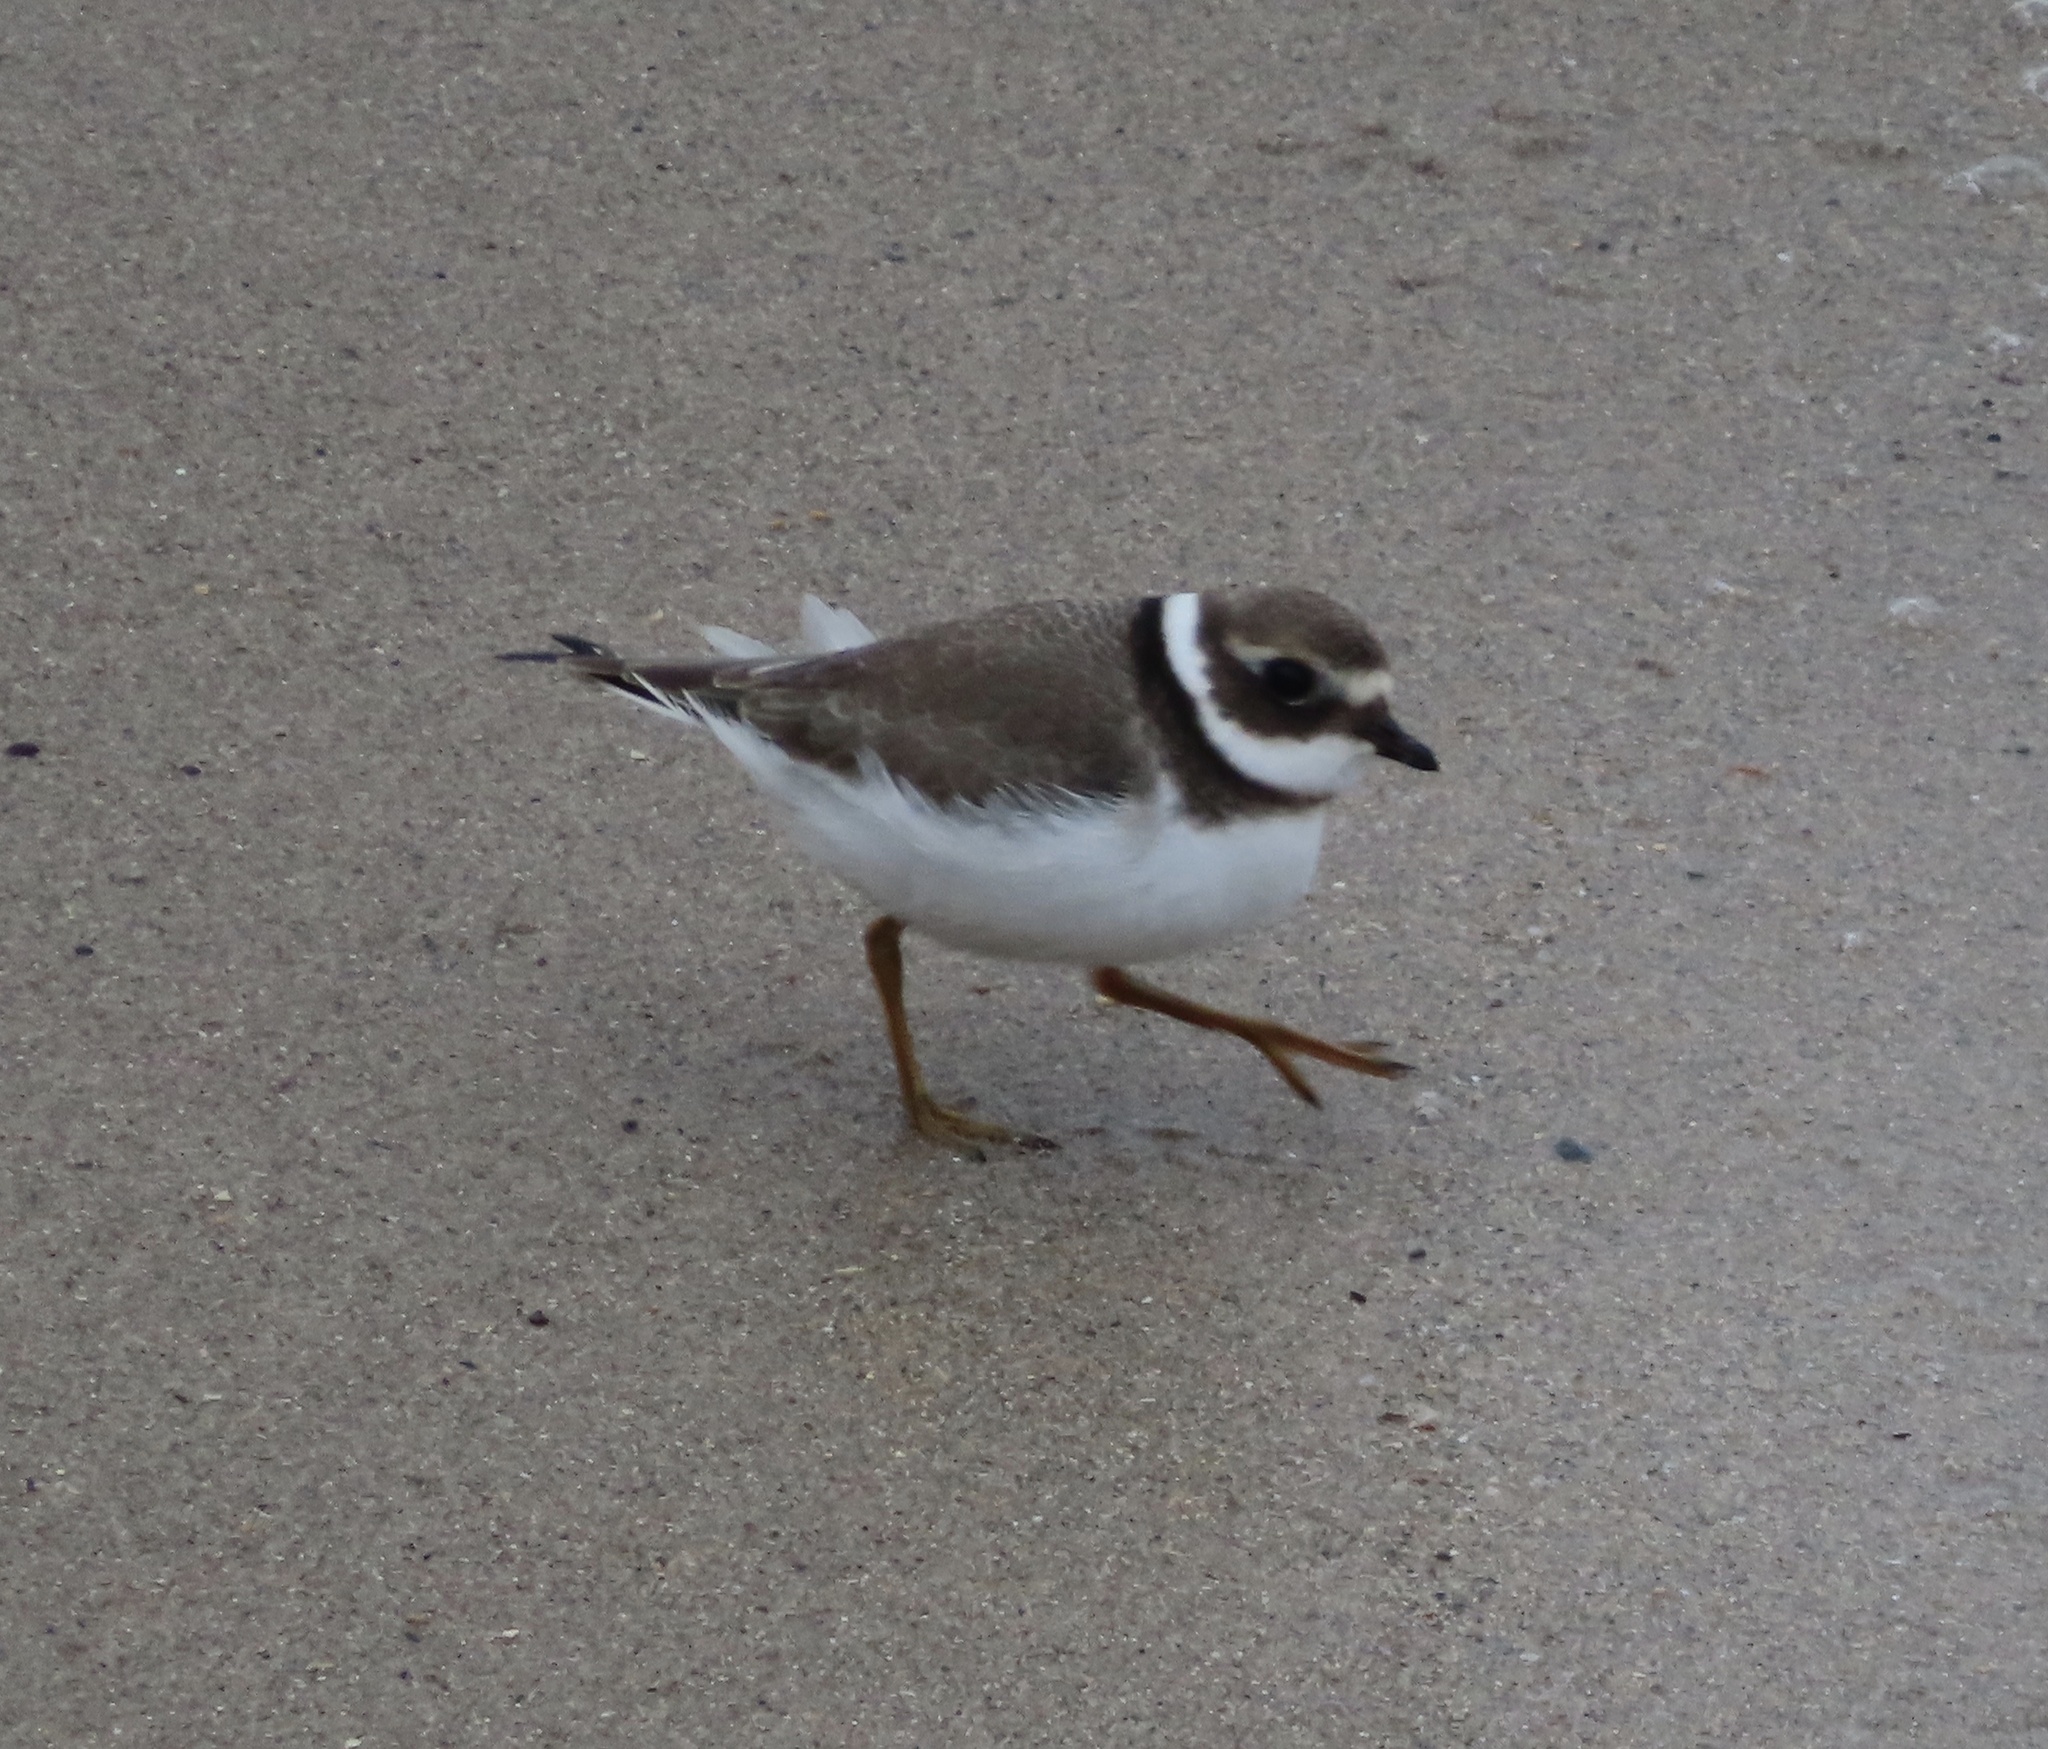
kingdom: Animalia
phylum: Chordata
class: Aves
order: Charadriiformes
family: Charadriidae
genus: Charadrius
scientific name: Charadrius hiaticula
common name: Common ringed plover
